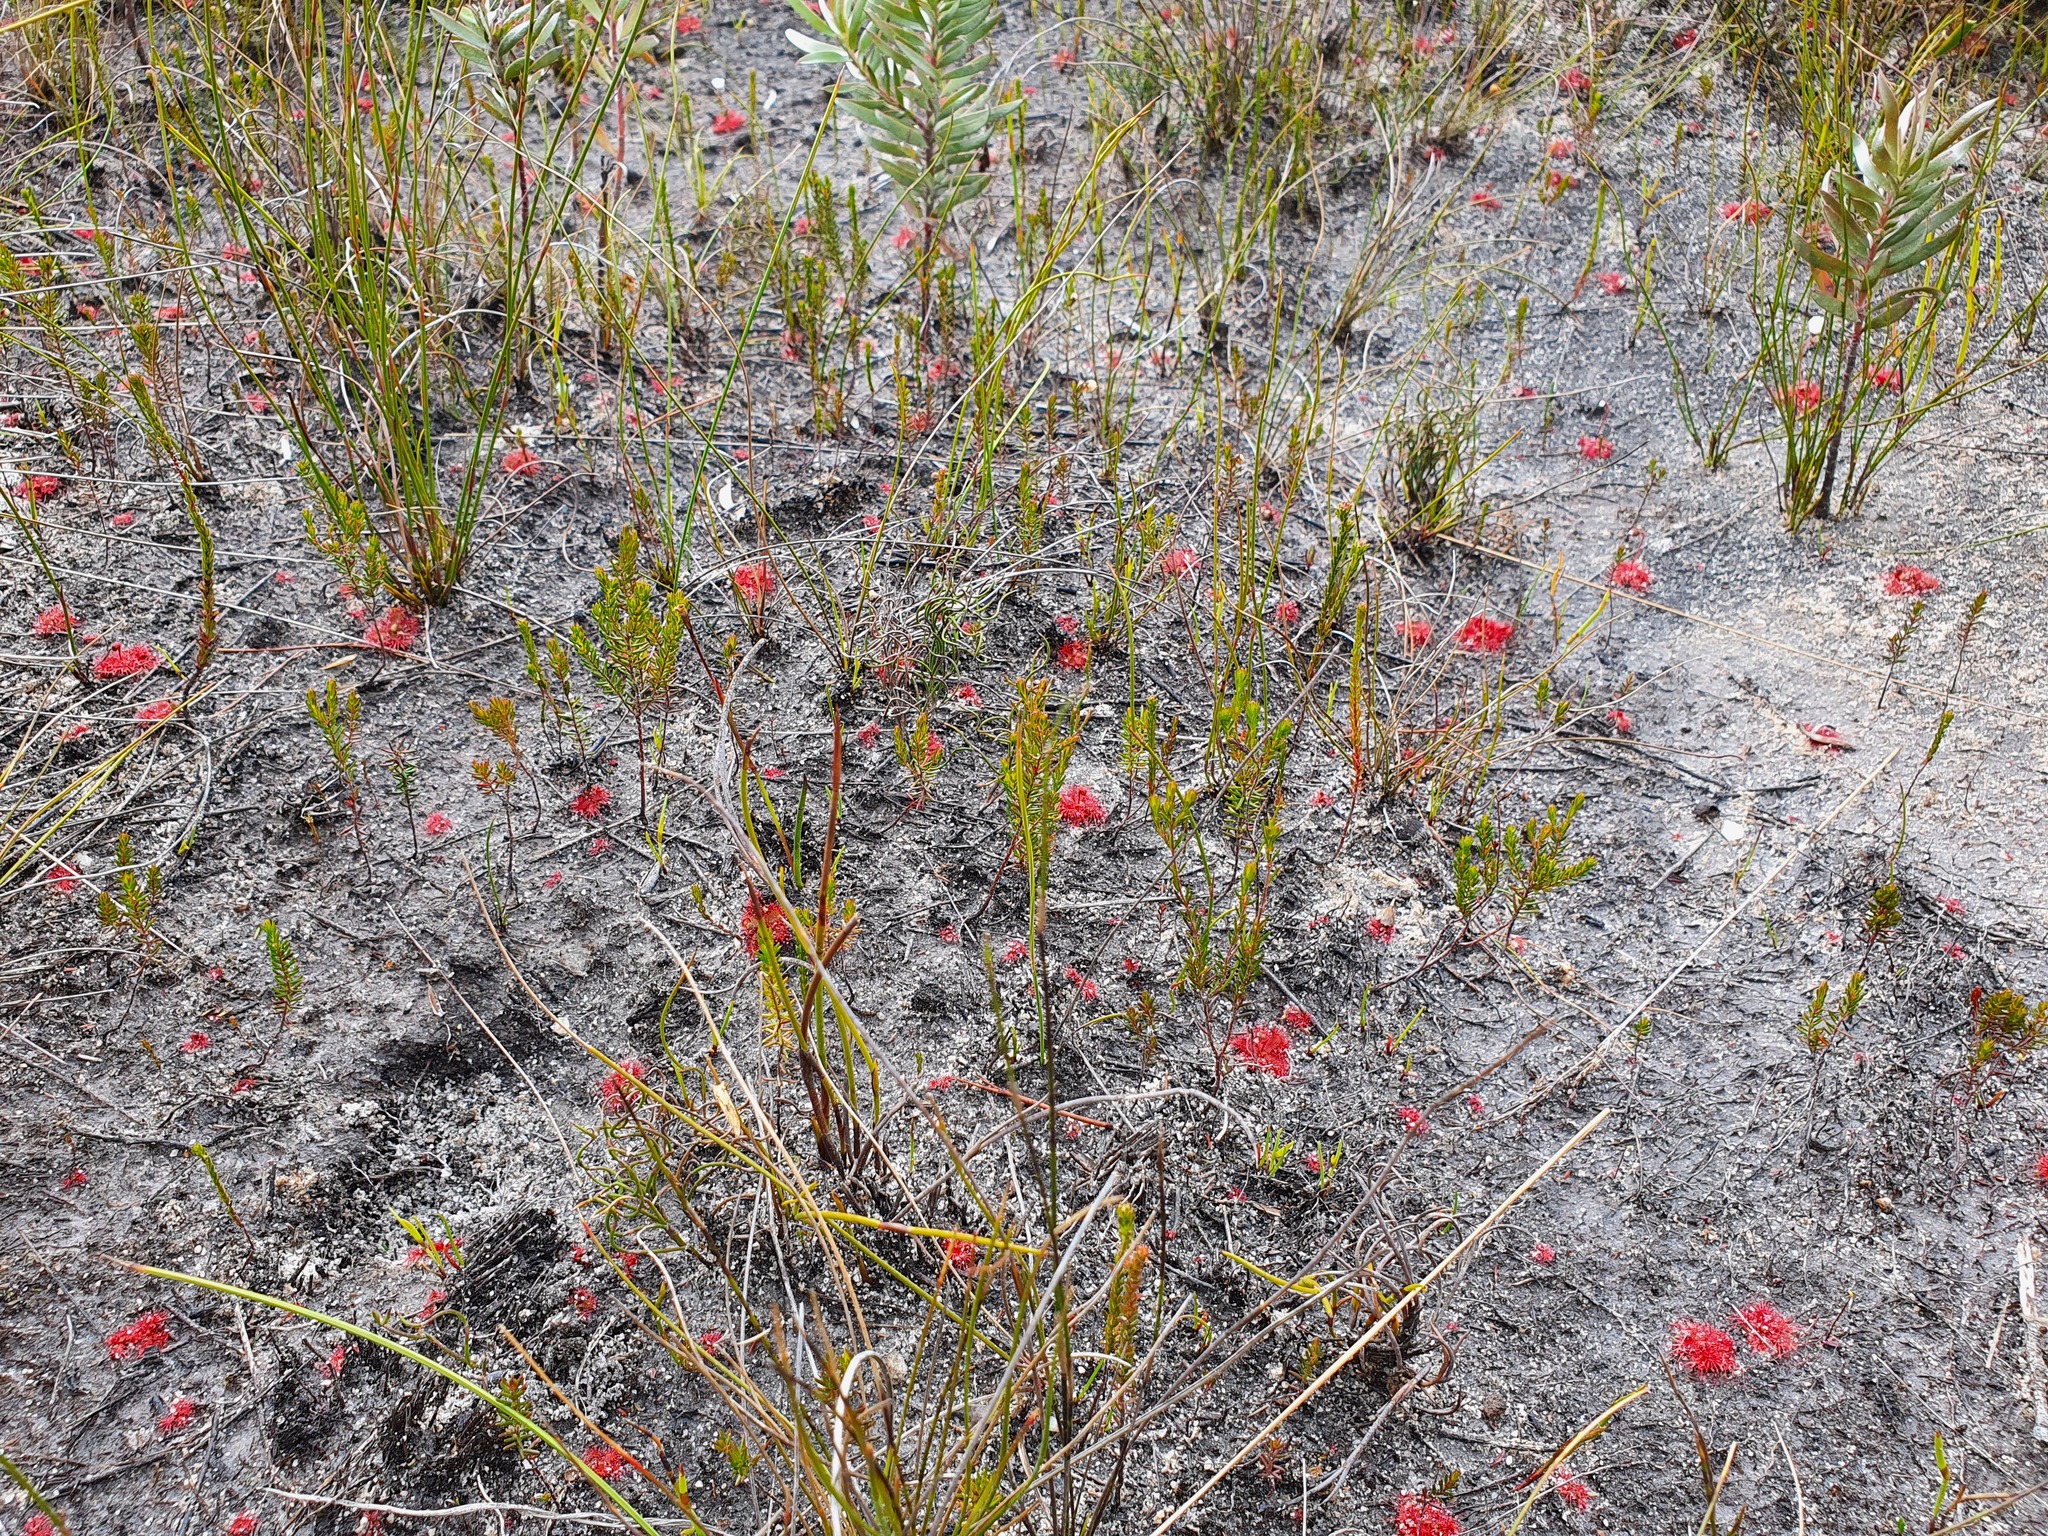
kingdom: Plantae
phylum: Tracheophyta
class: Magnoliopsida
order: Caryophyllales
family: Droseraceae
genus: Drosera
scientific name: Drosera trinervia
